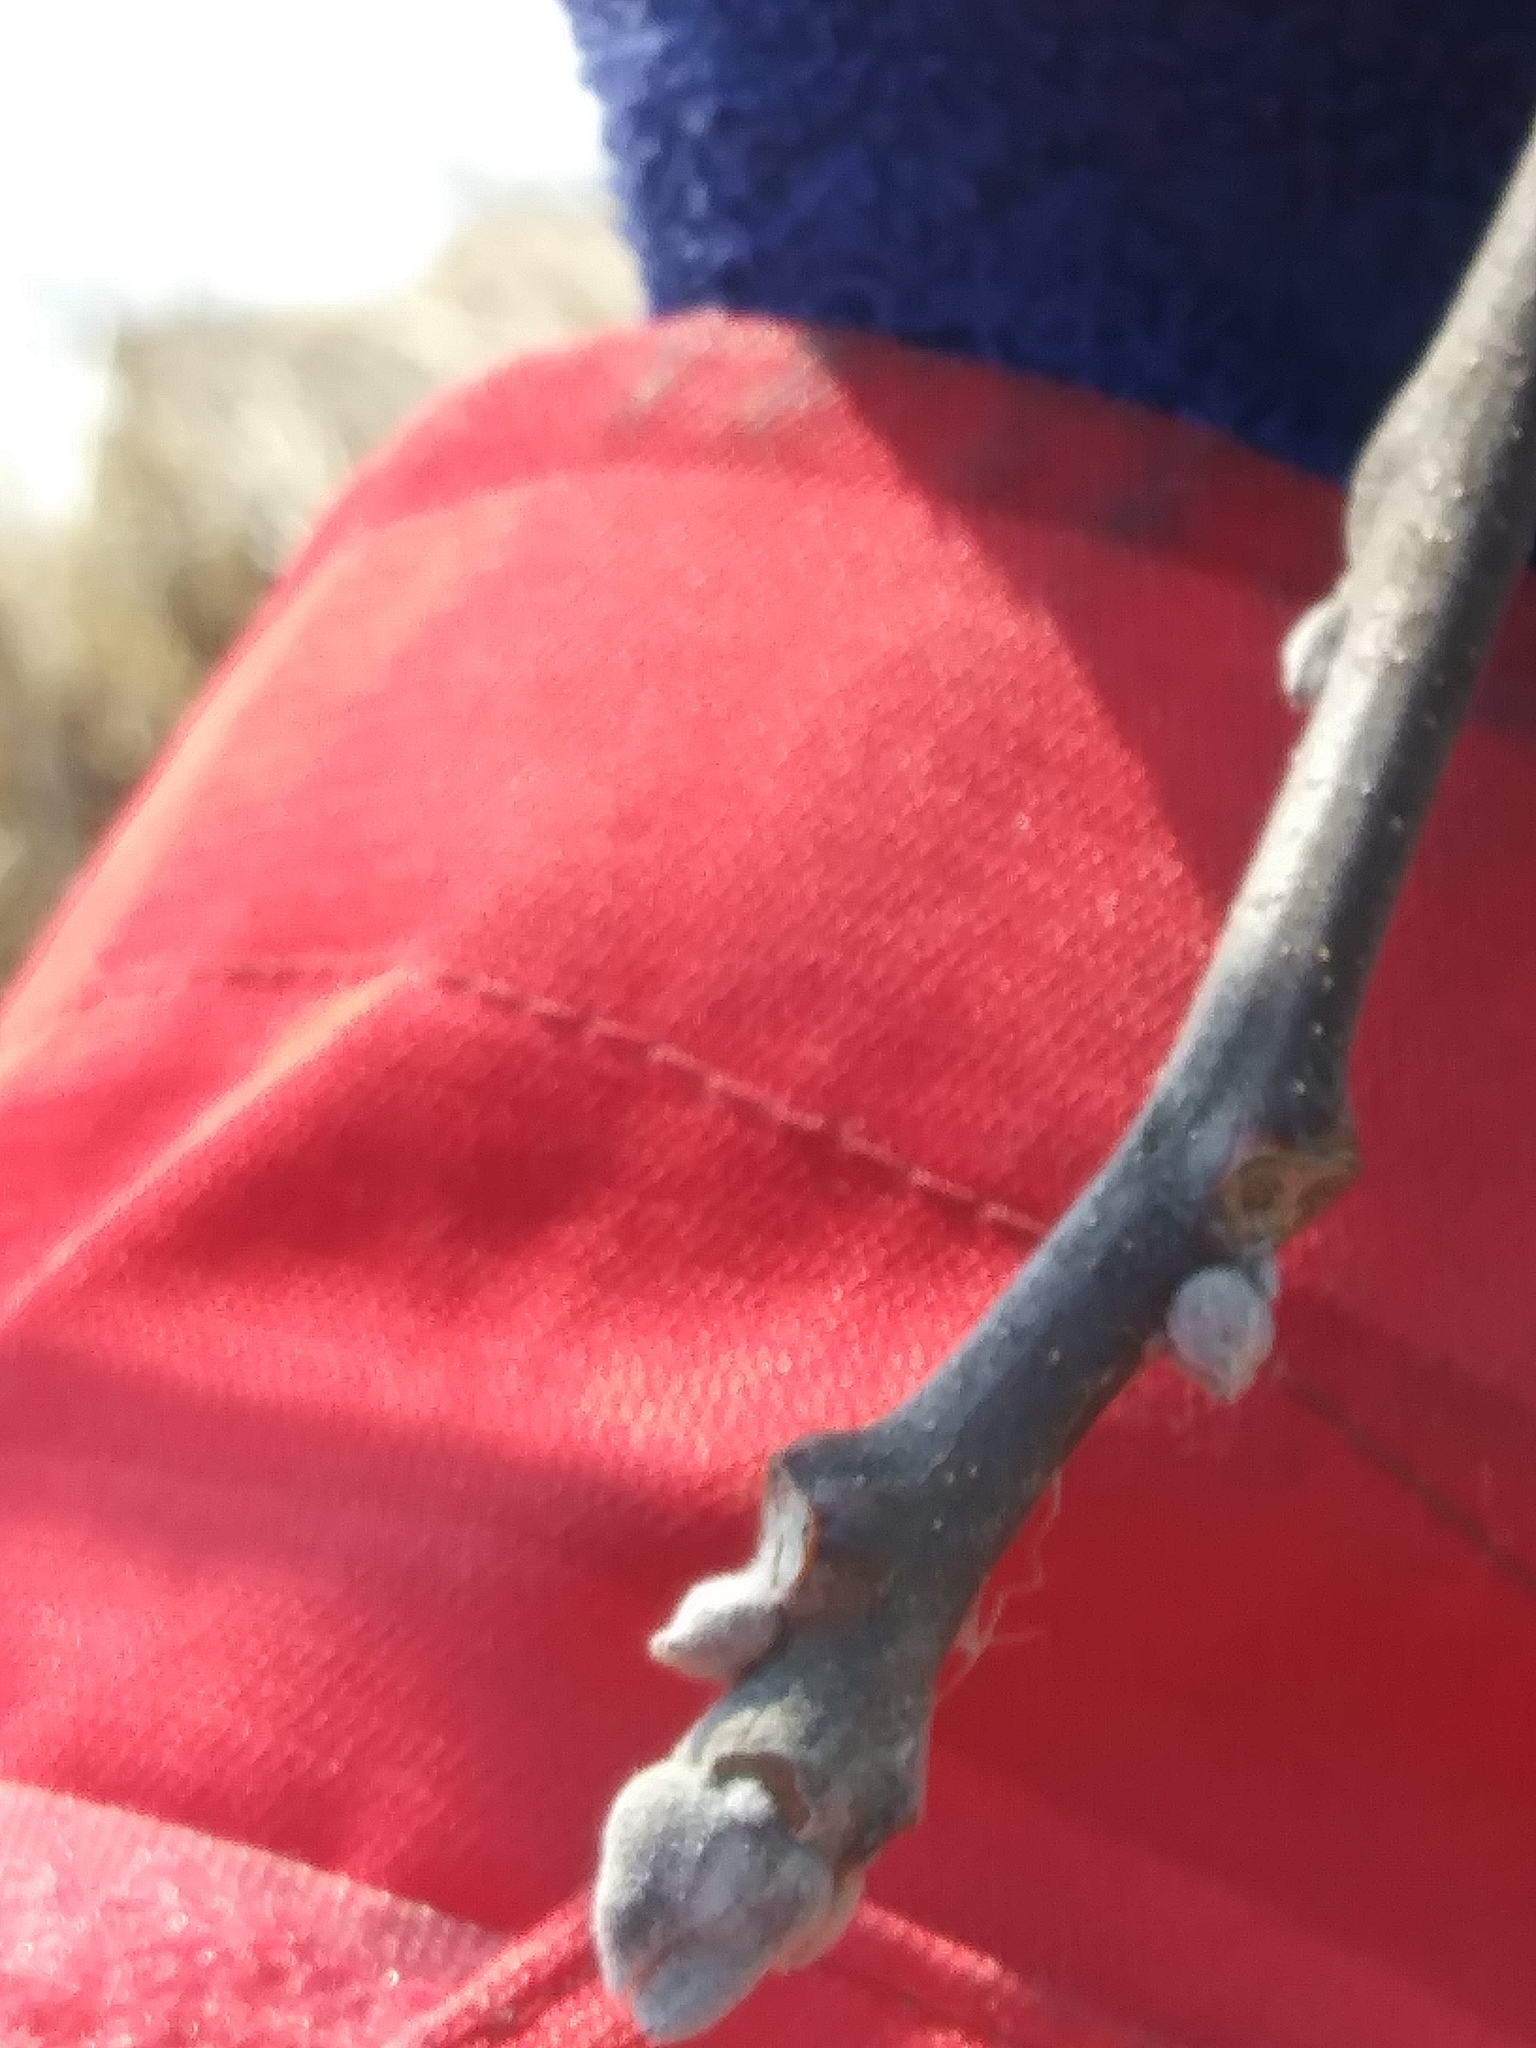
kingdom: Plantae
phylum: Tracheophyta
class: Magnoliopsida
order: Fagales
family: Juglandaceae
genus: Juglans
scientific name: Juglans nigra
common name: Black walnut
